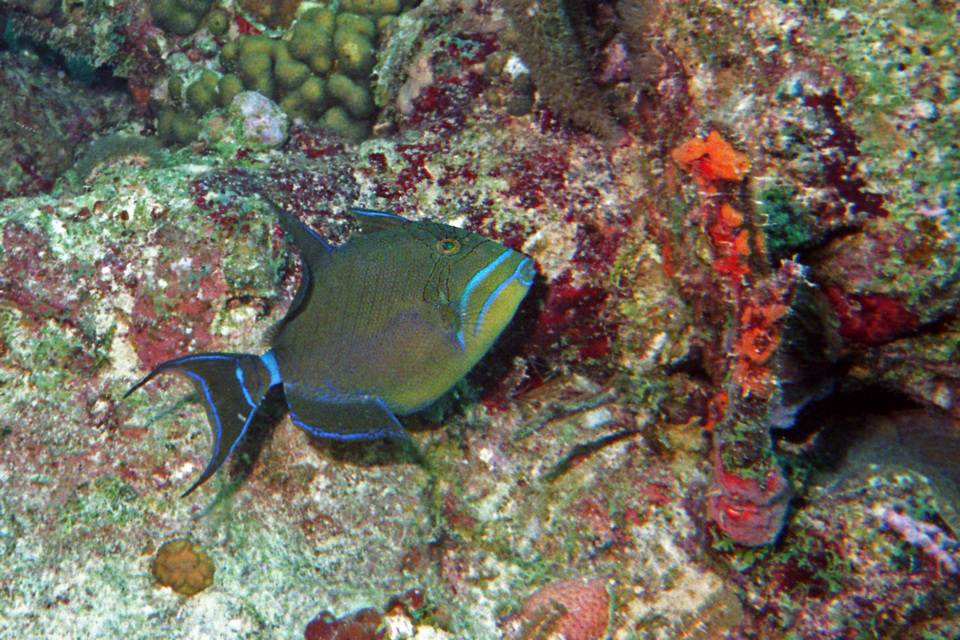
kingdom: Animalia
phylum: Chordata
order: Tetraodontiformes
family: Balistidae
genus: Balistes
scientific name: Balistes vetula
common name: Queen triggerfish
